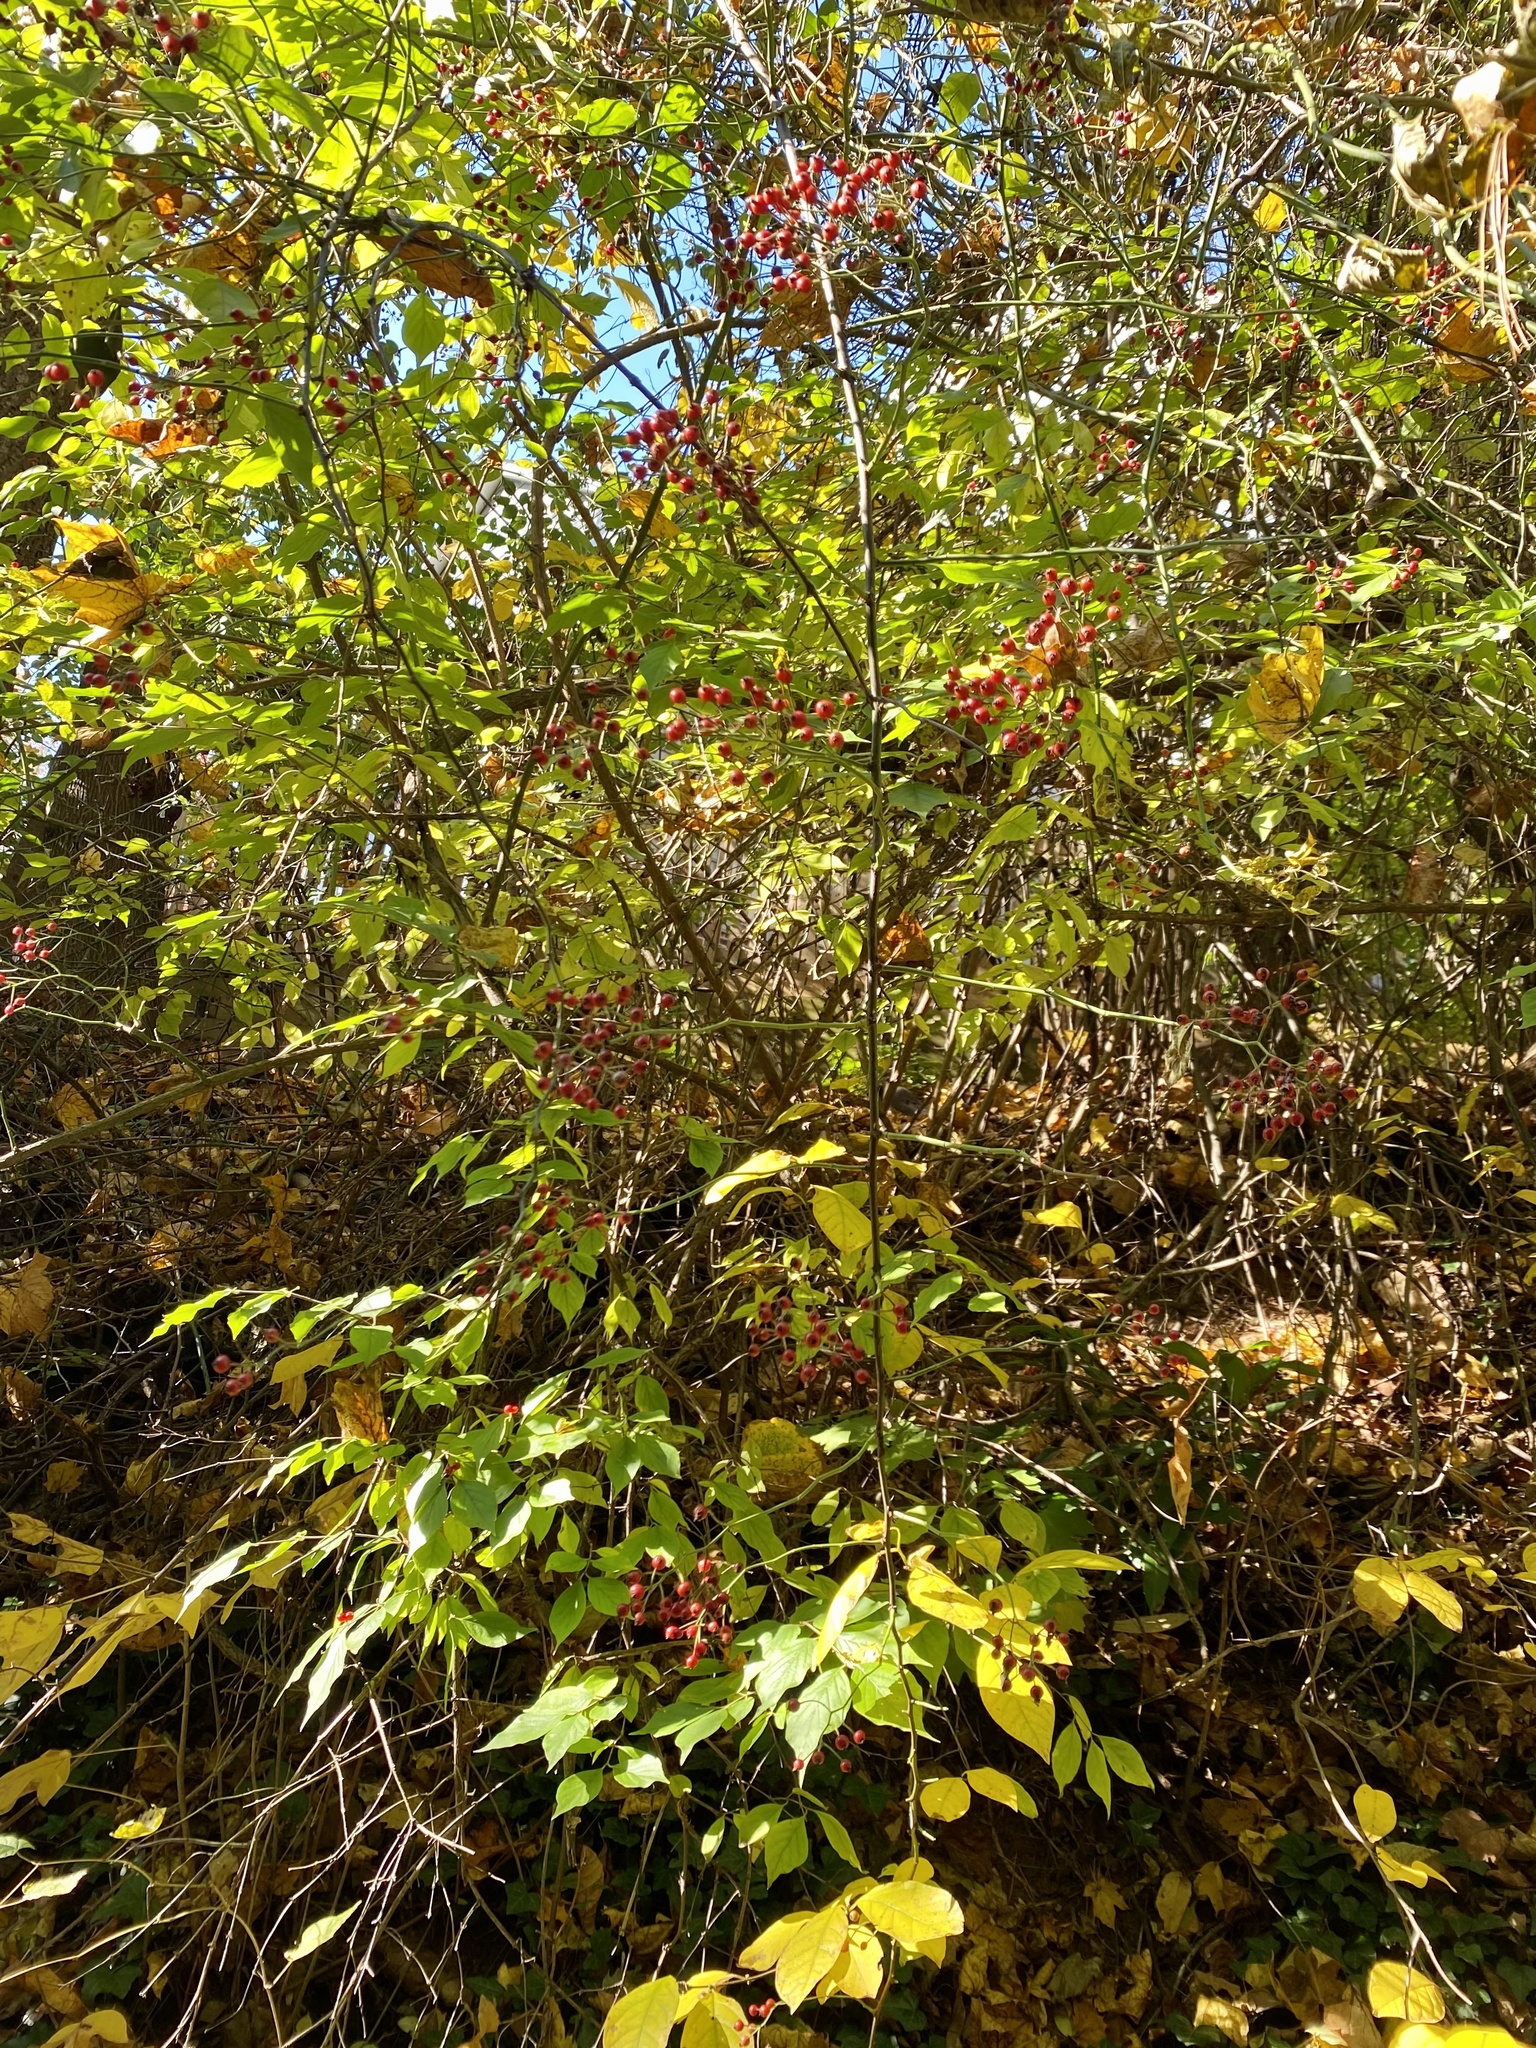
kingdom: Plantae
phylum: Tracheophyta
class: Magnoliopsida
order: Rosales
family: Rosaceae
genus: Rosa
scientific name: Rosa multiflora
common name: Multiflora rose
